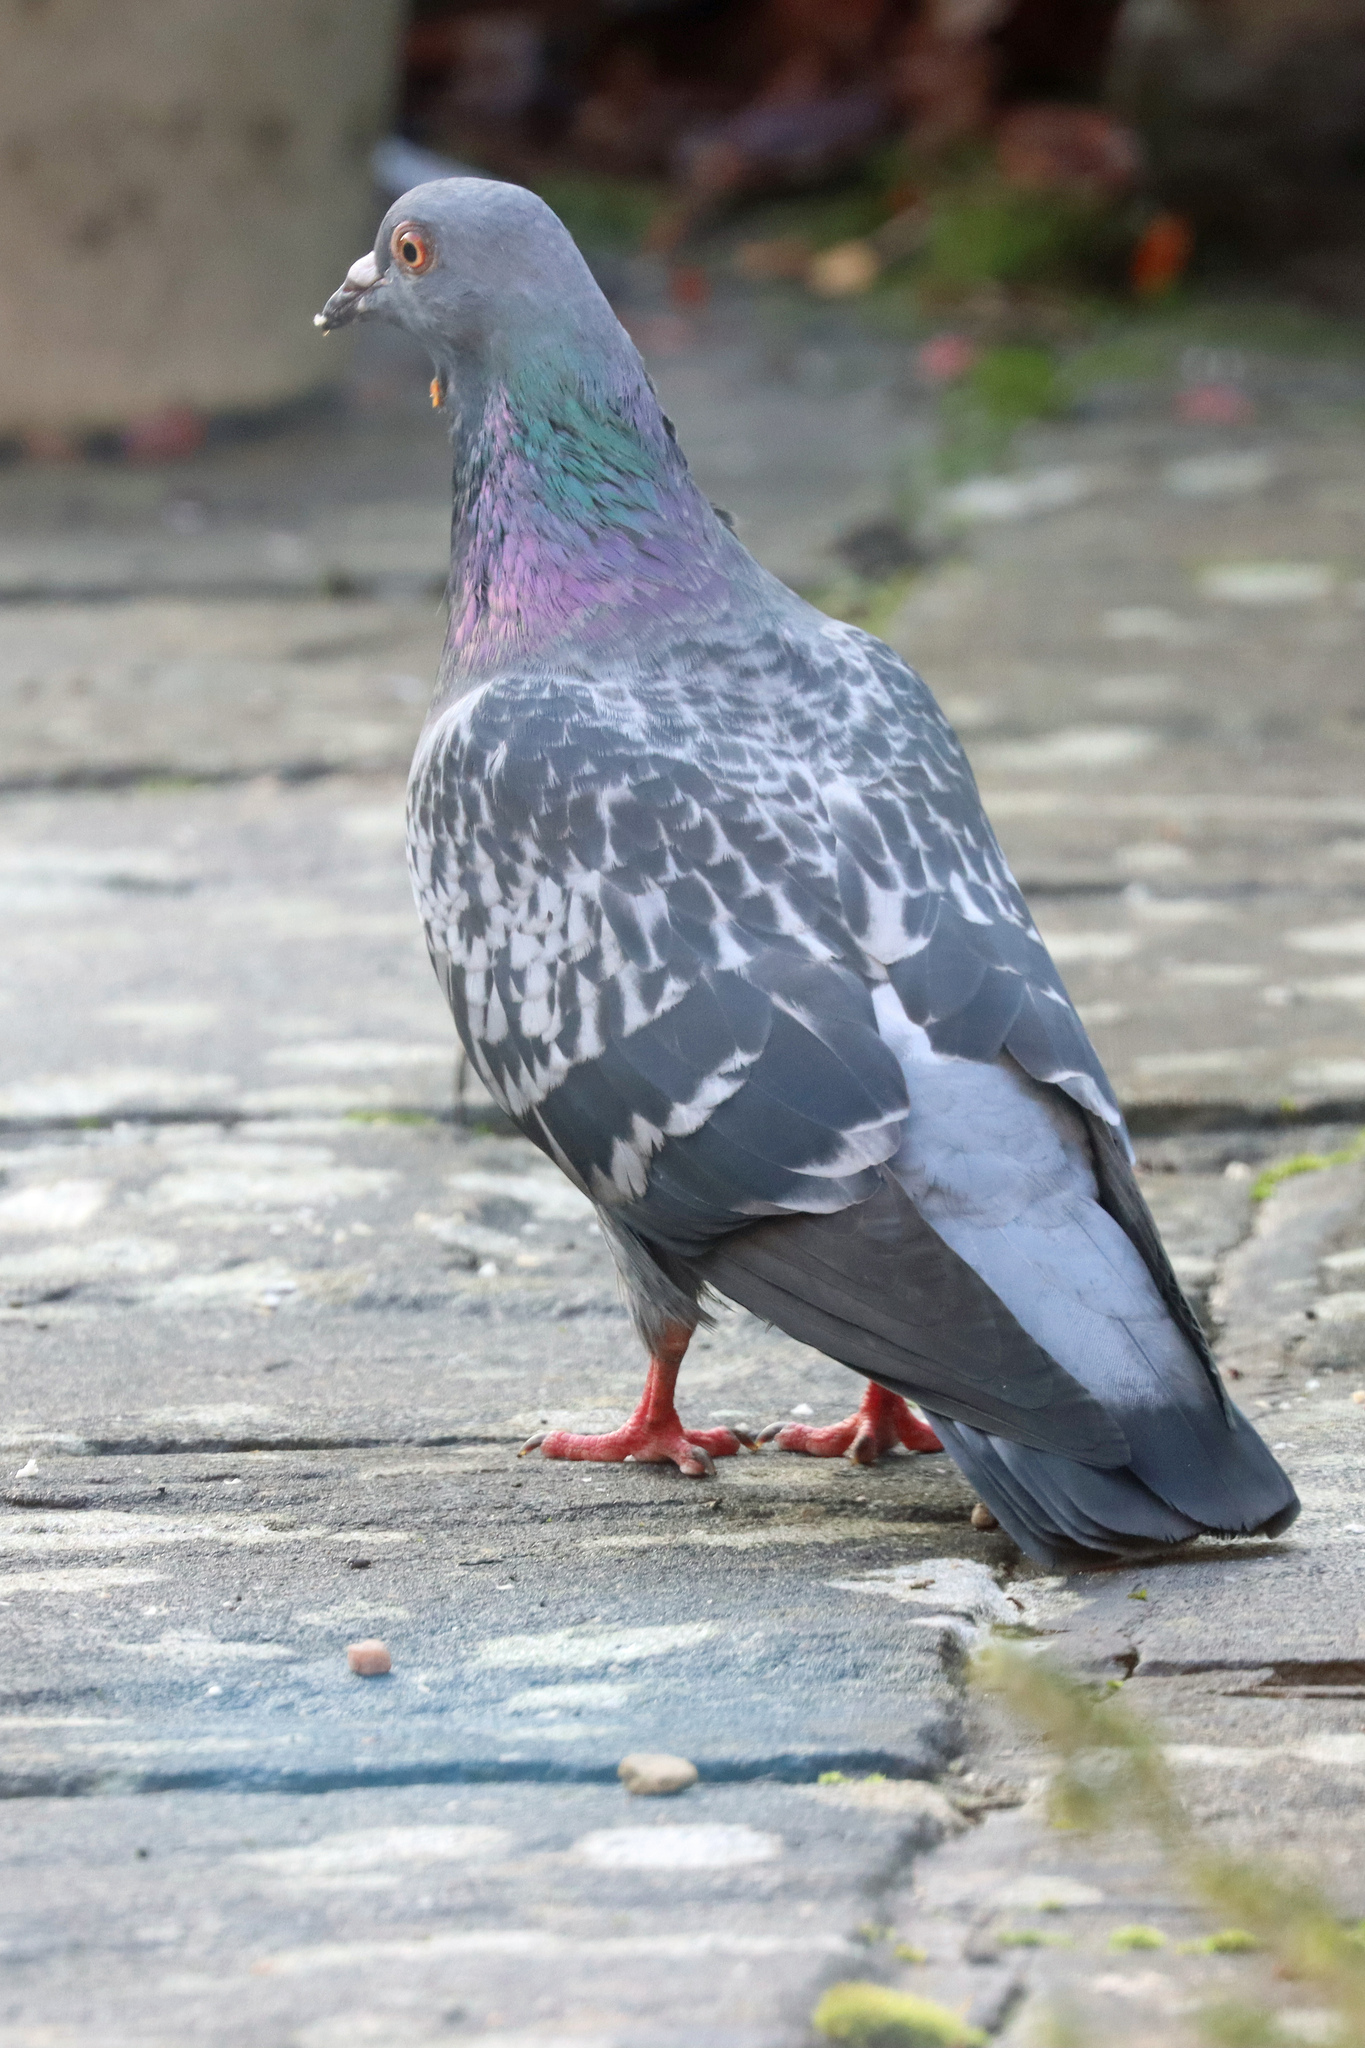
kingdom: Animalia
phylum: Chordata
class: Aves
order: Columbiformes
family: Columbidae
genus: Columba
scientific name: Columba livia
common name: Rock pigeon
